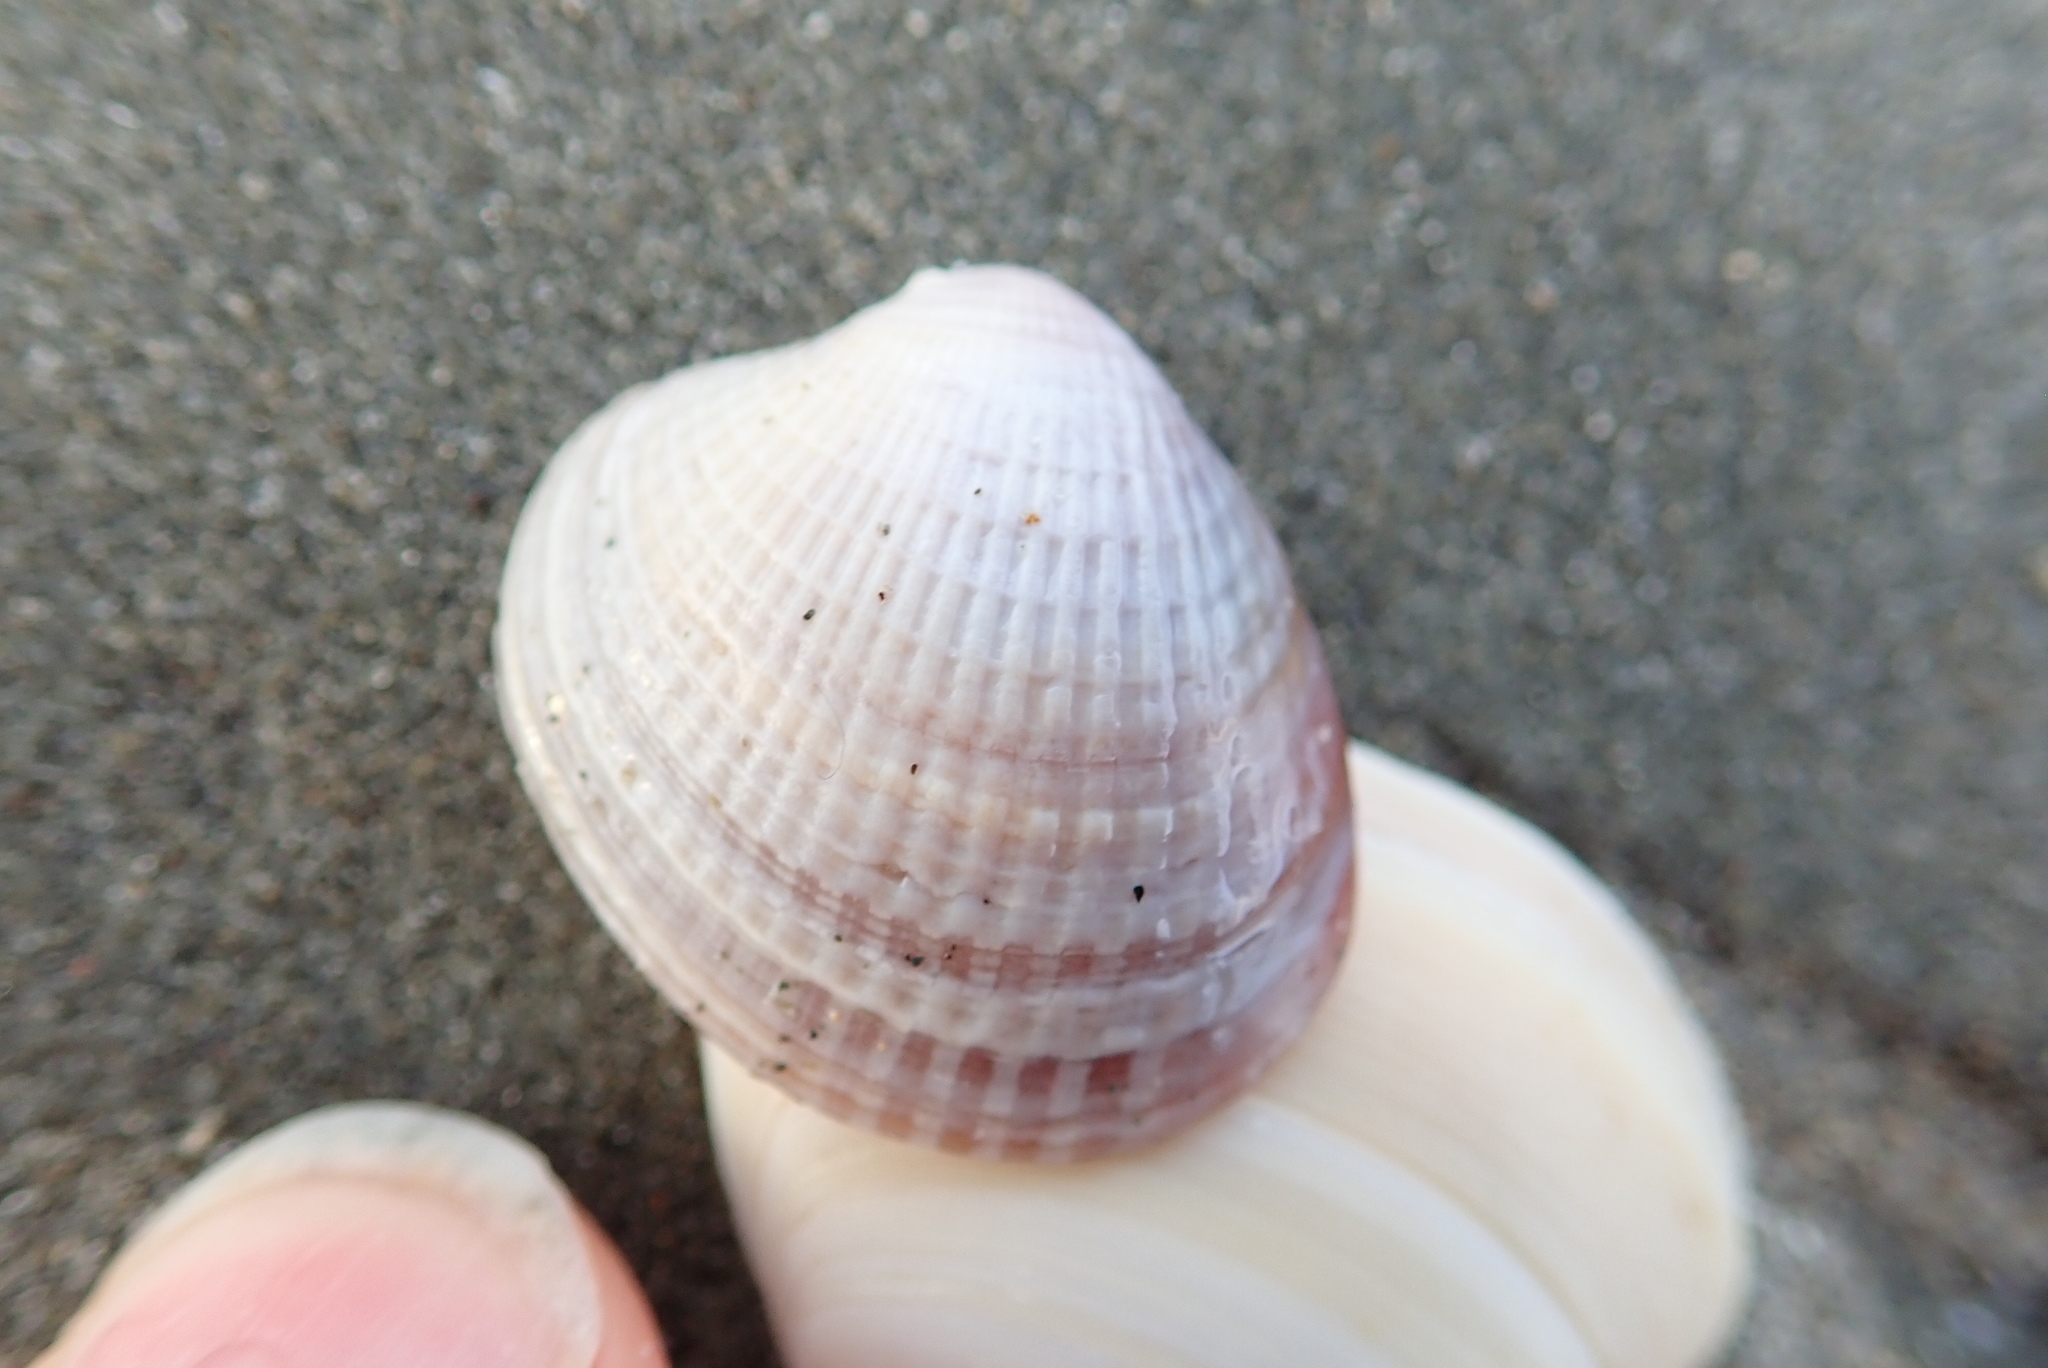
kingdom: Animalia
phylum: Mollusca
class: Bivalvia
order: Venerida
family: Veneridae
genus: Austrovenus
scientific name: Austrovenus stutchburyi
